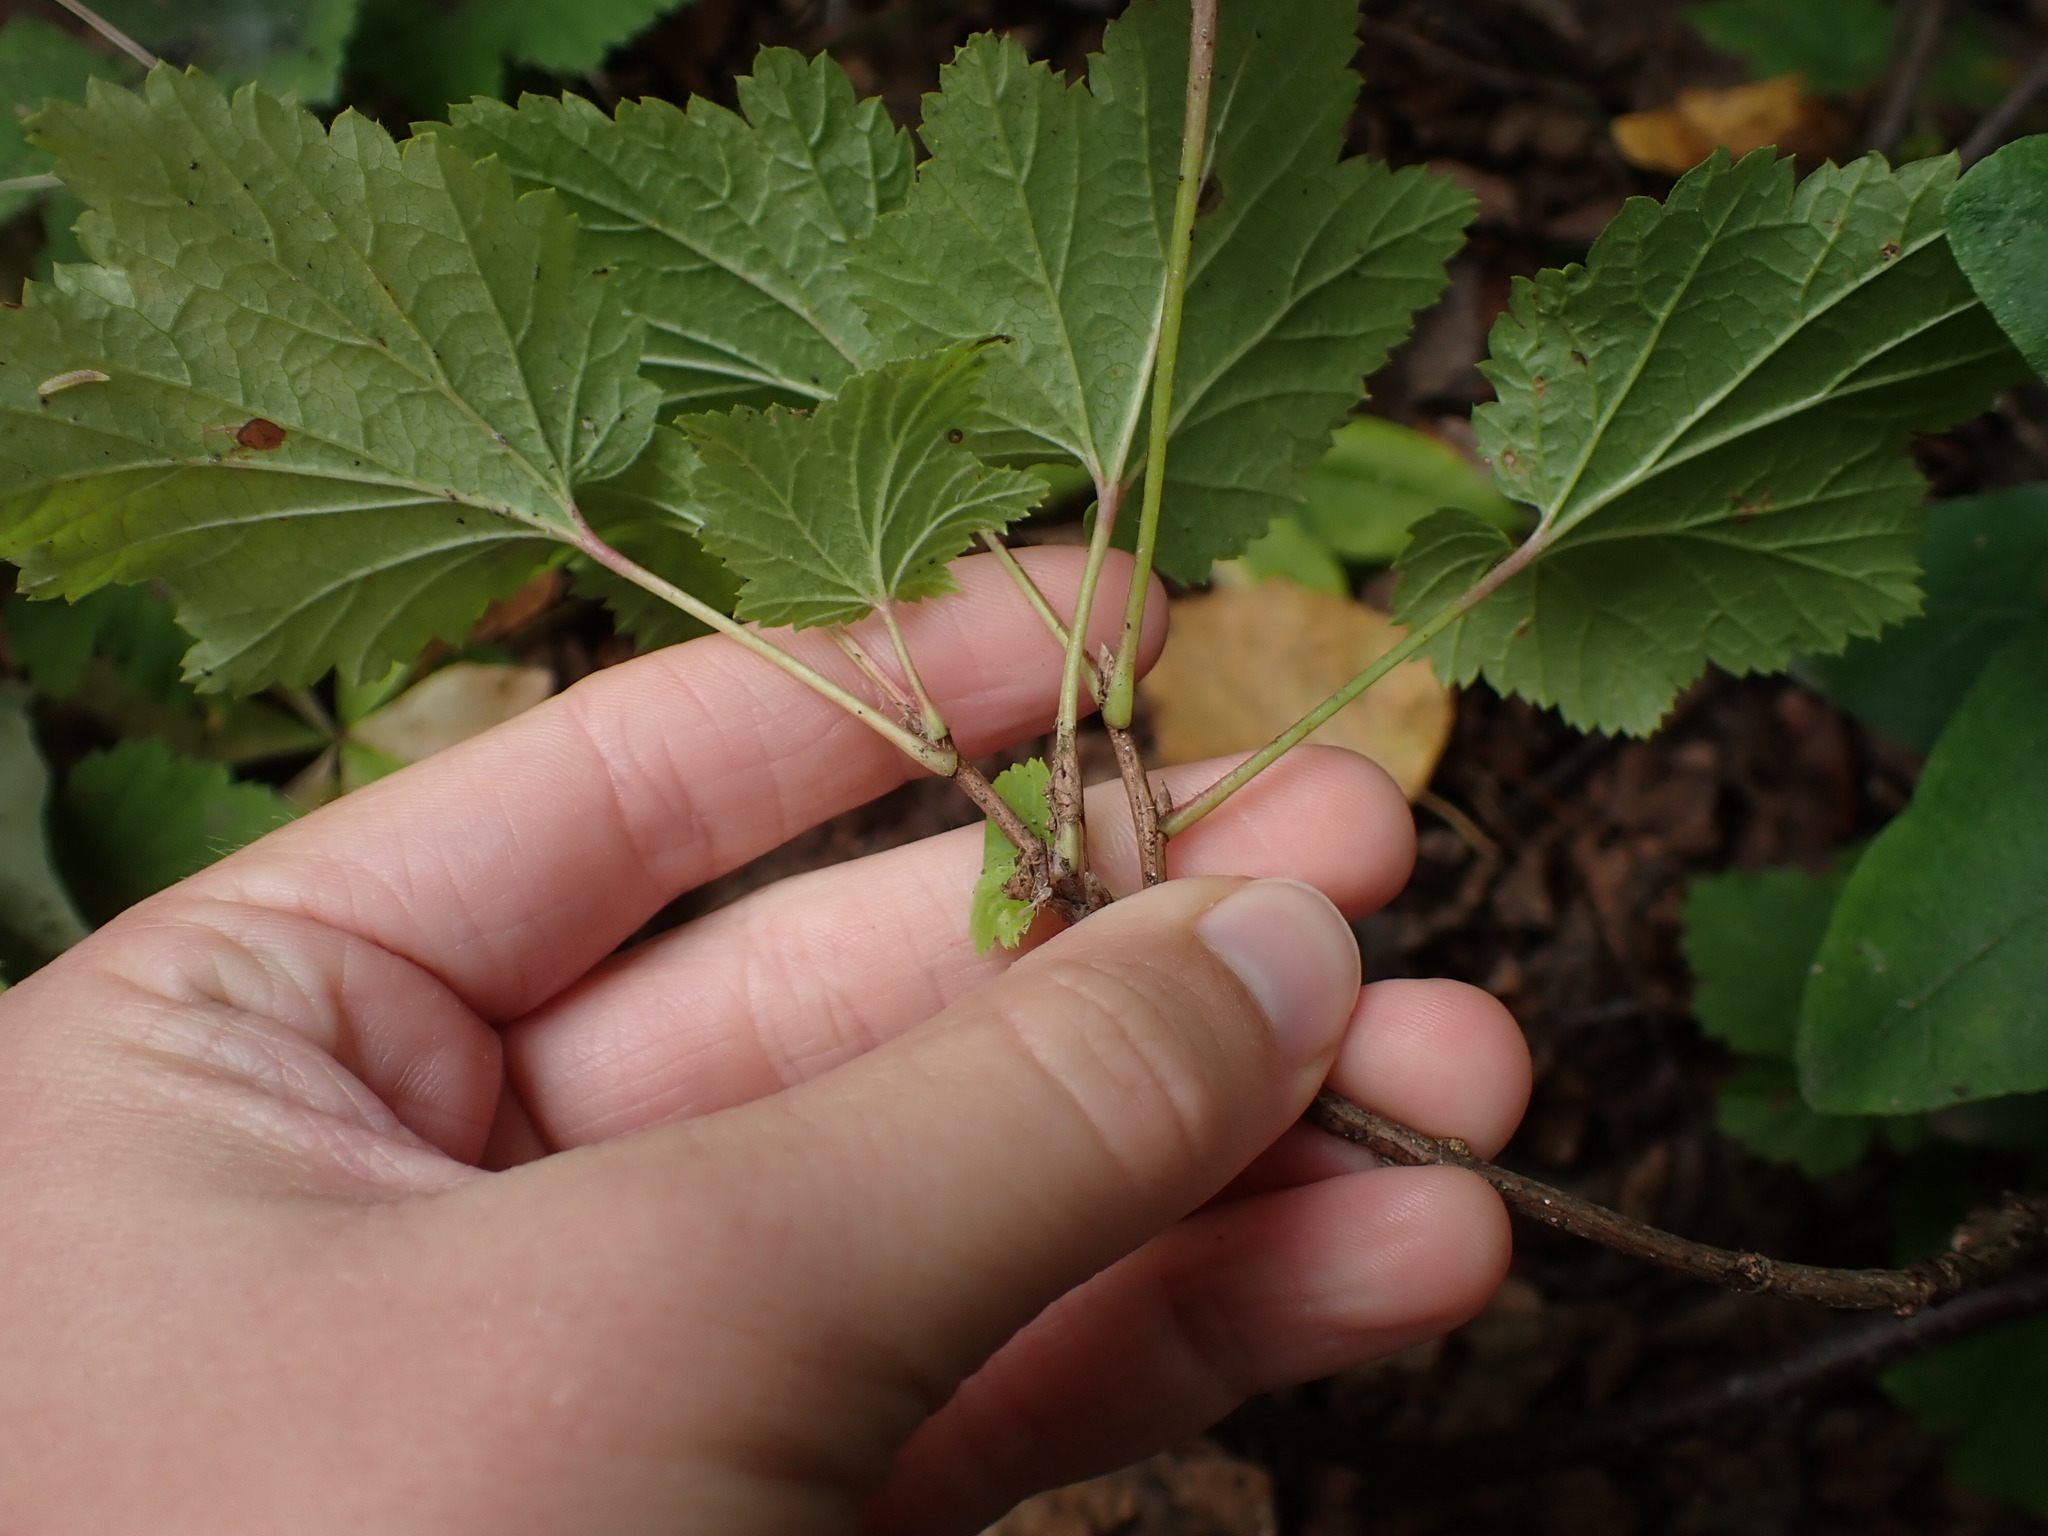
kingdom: Plantae
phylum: Tracheophyta
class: Magnoliopsida
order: Saxifragales
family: Grossulariaceae
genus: Ribes
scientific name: Ribes triste
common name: Swamp red currant
